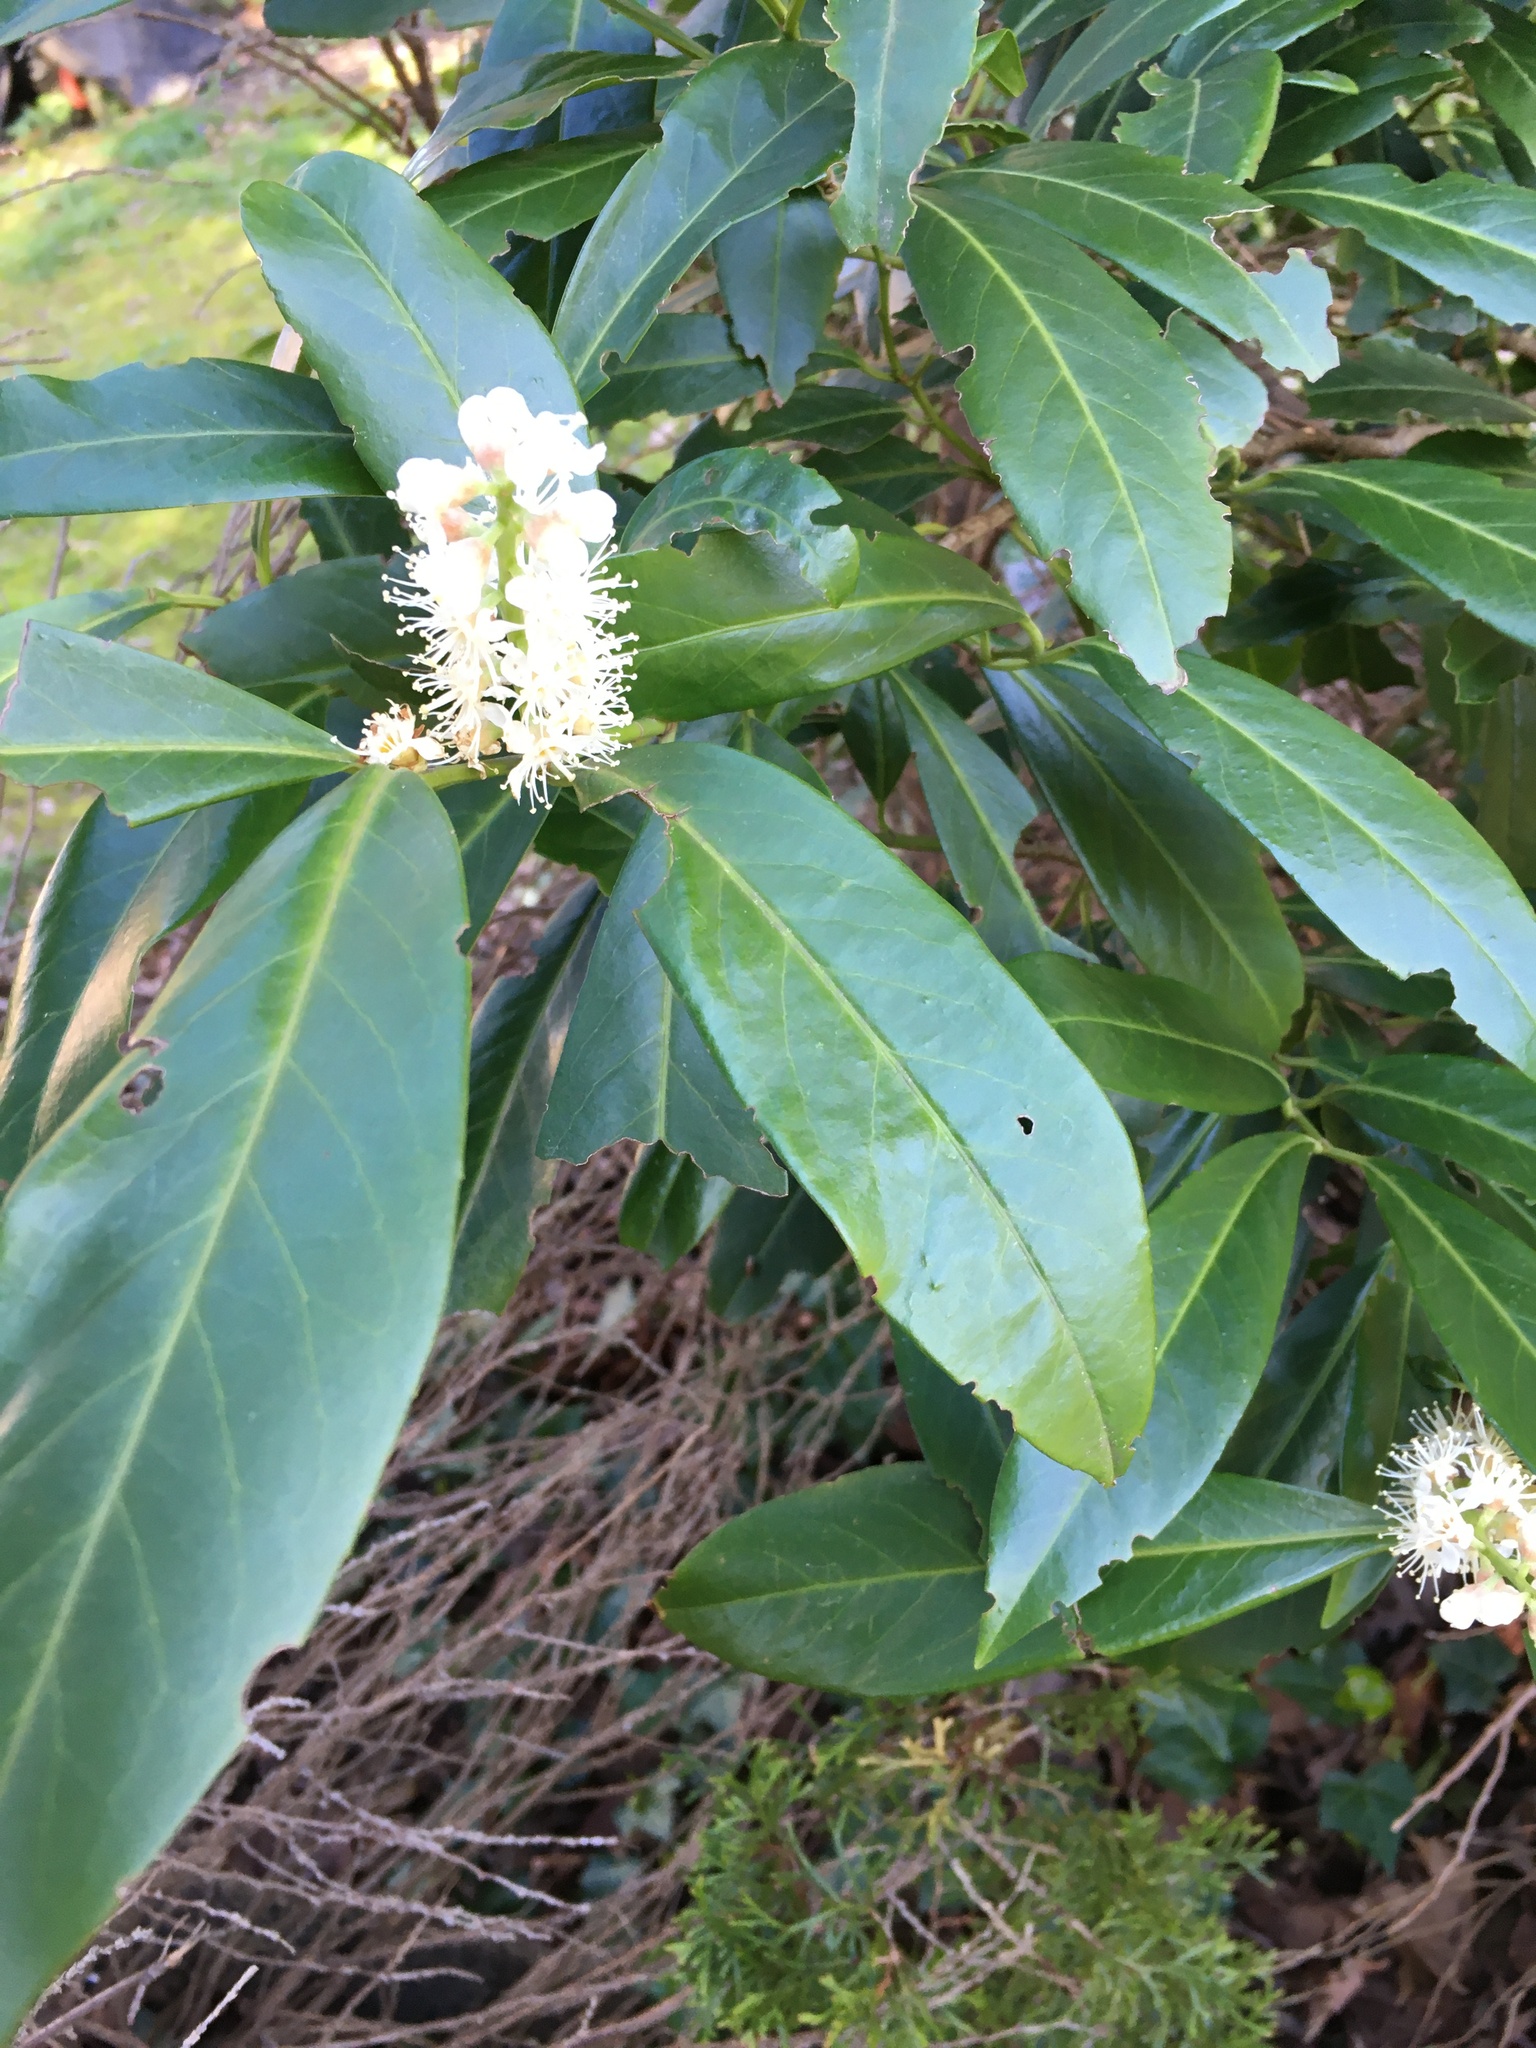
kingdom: Plantae
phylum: Tracheophyta
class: Magnoliopsida
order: Rosales
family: Rosaceae
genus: Prunus
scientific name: Prunus laurocerasus
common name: Cherry laurel
